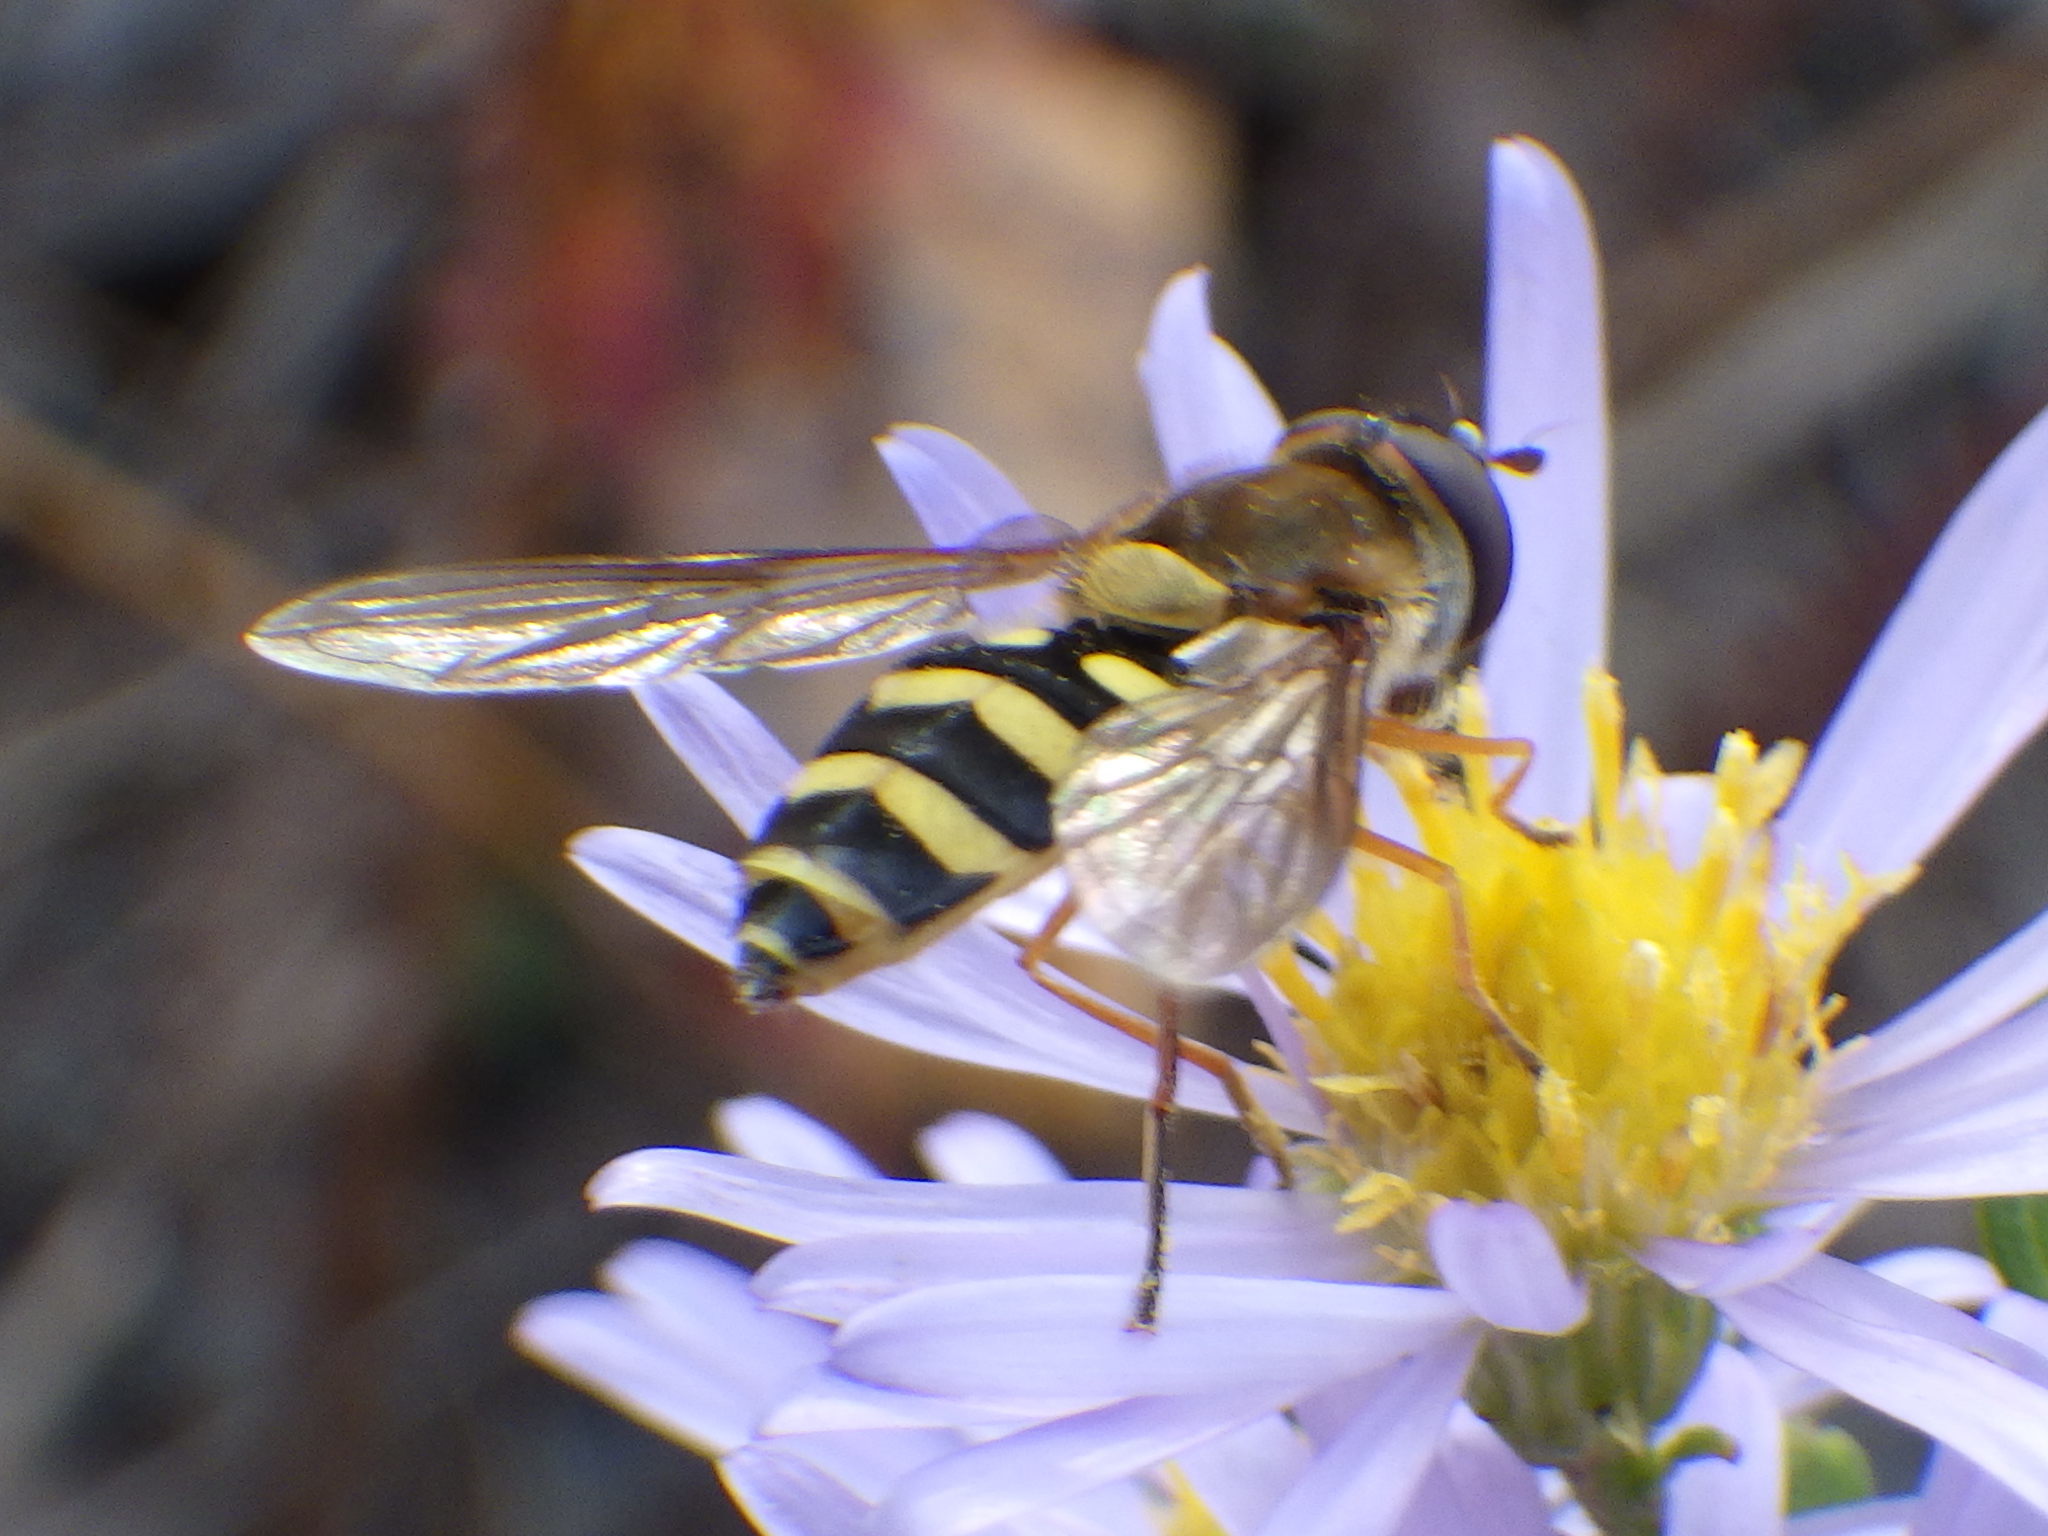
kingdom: Animalia
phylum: Arthropoda
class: Insecta
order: Diptera
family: Syrphidae
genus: Syrphus
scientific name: Syrphus ribesii
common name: Common flower fly
